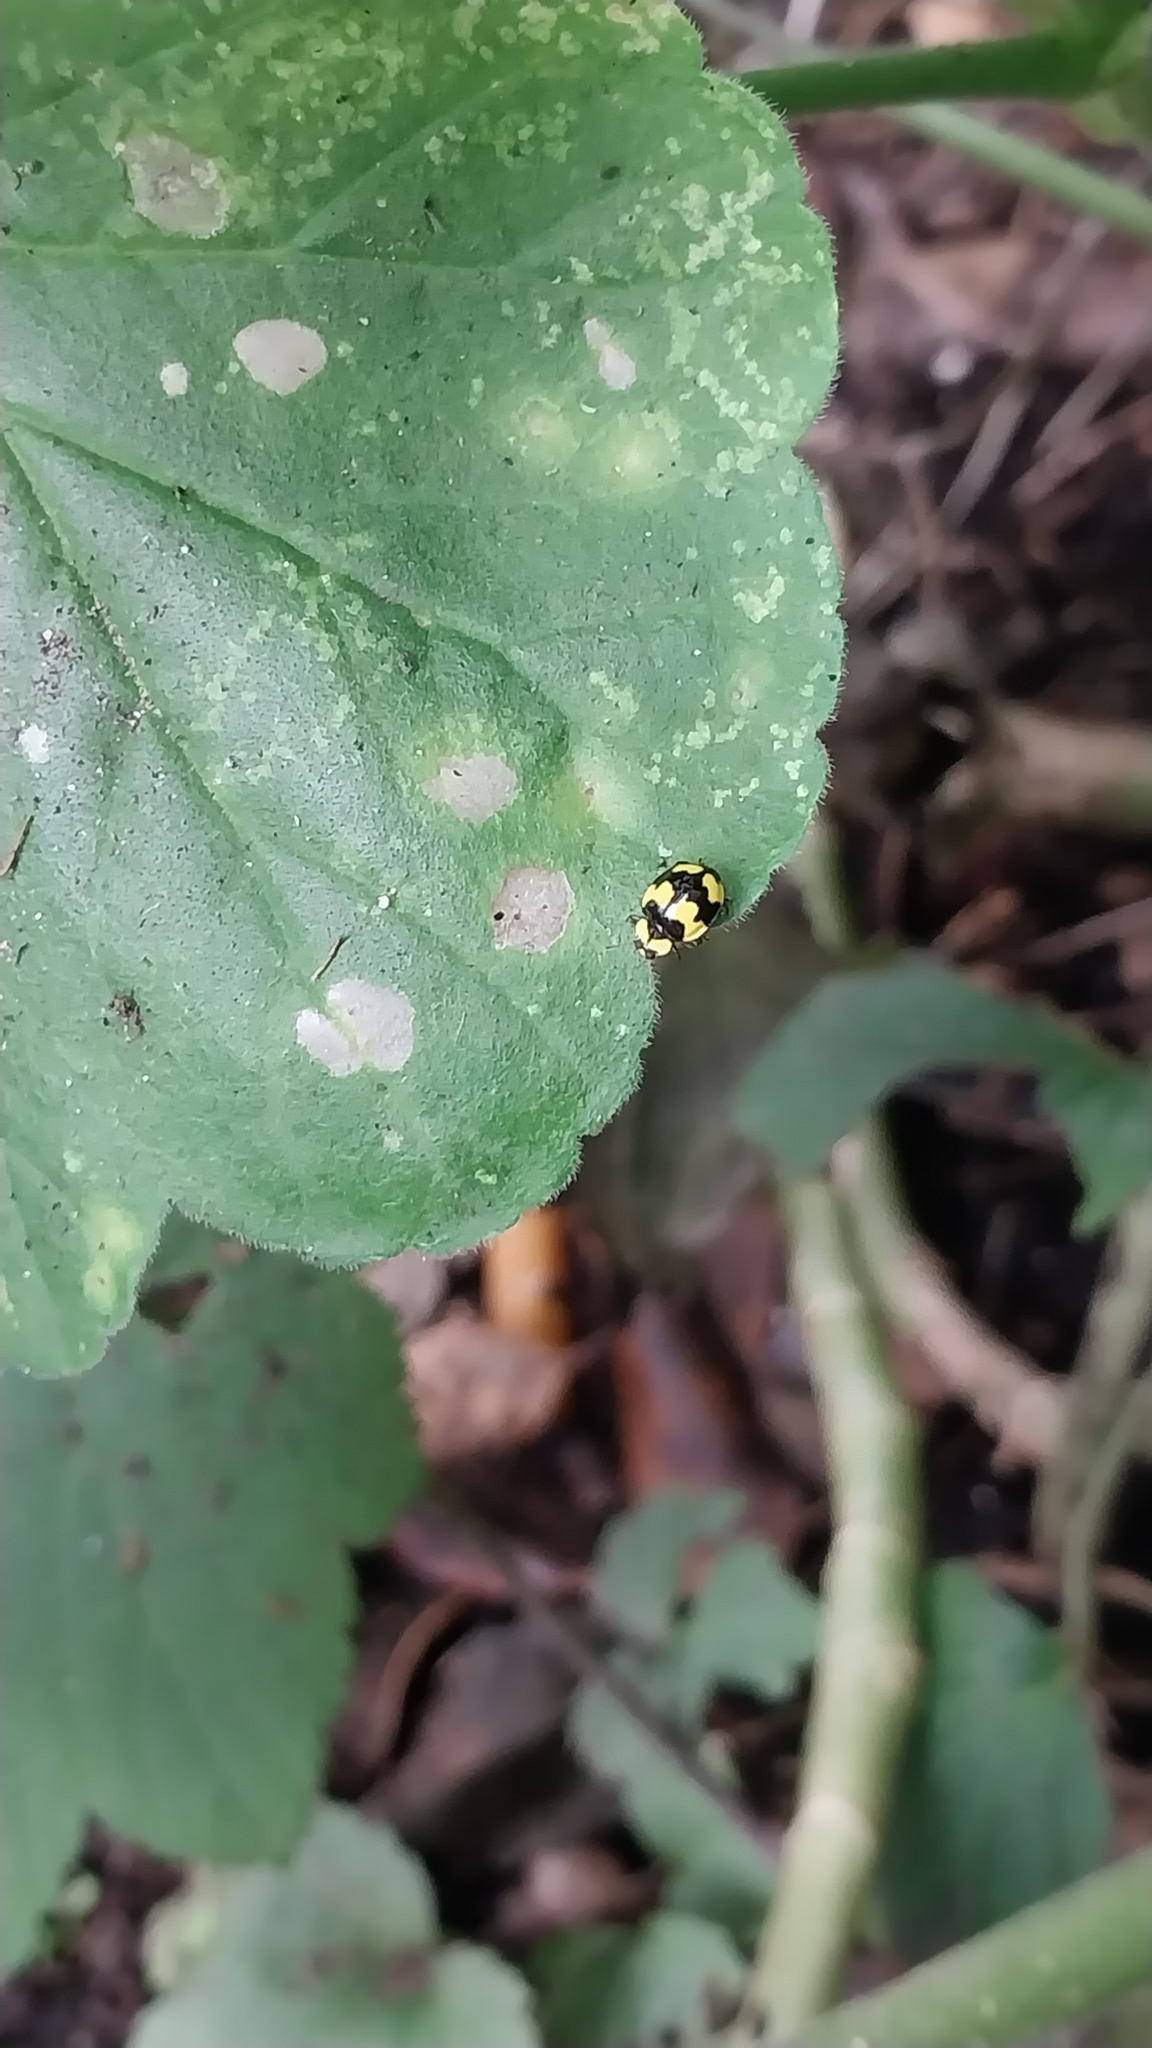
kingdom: Animalia
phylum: Arthropoda
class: Insecta
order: Coleoptera
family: Coccinellidae
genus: Illeis
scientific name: Illeis galbula
